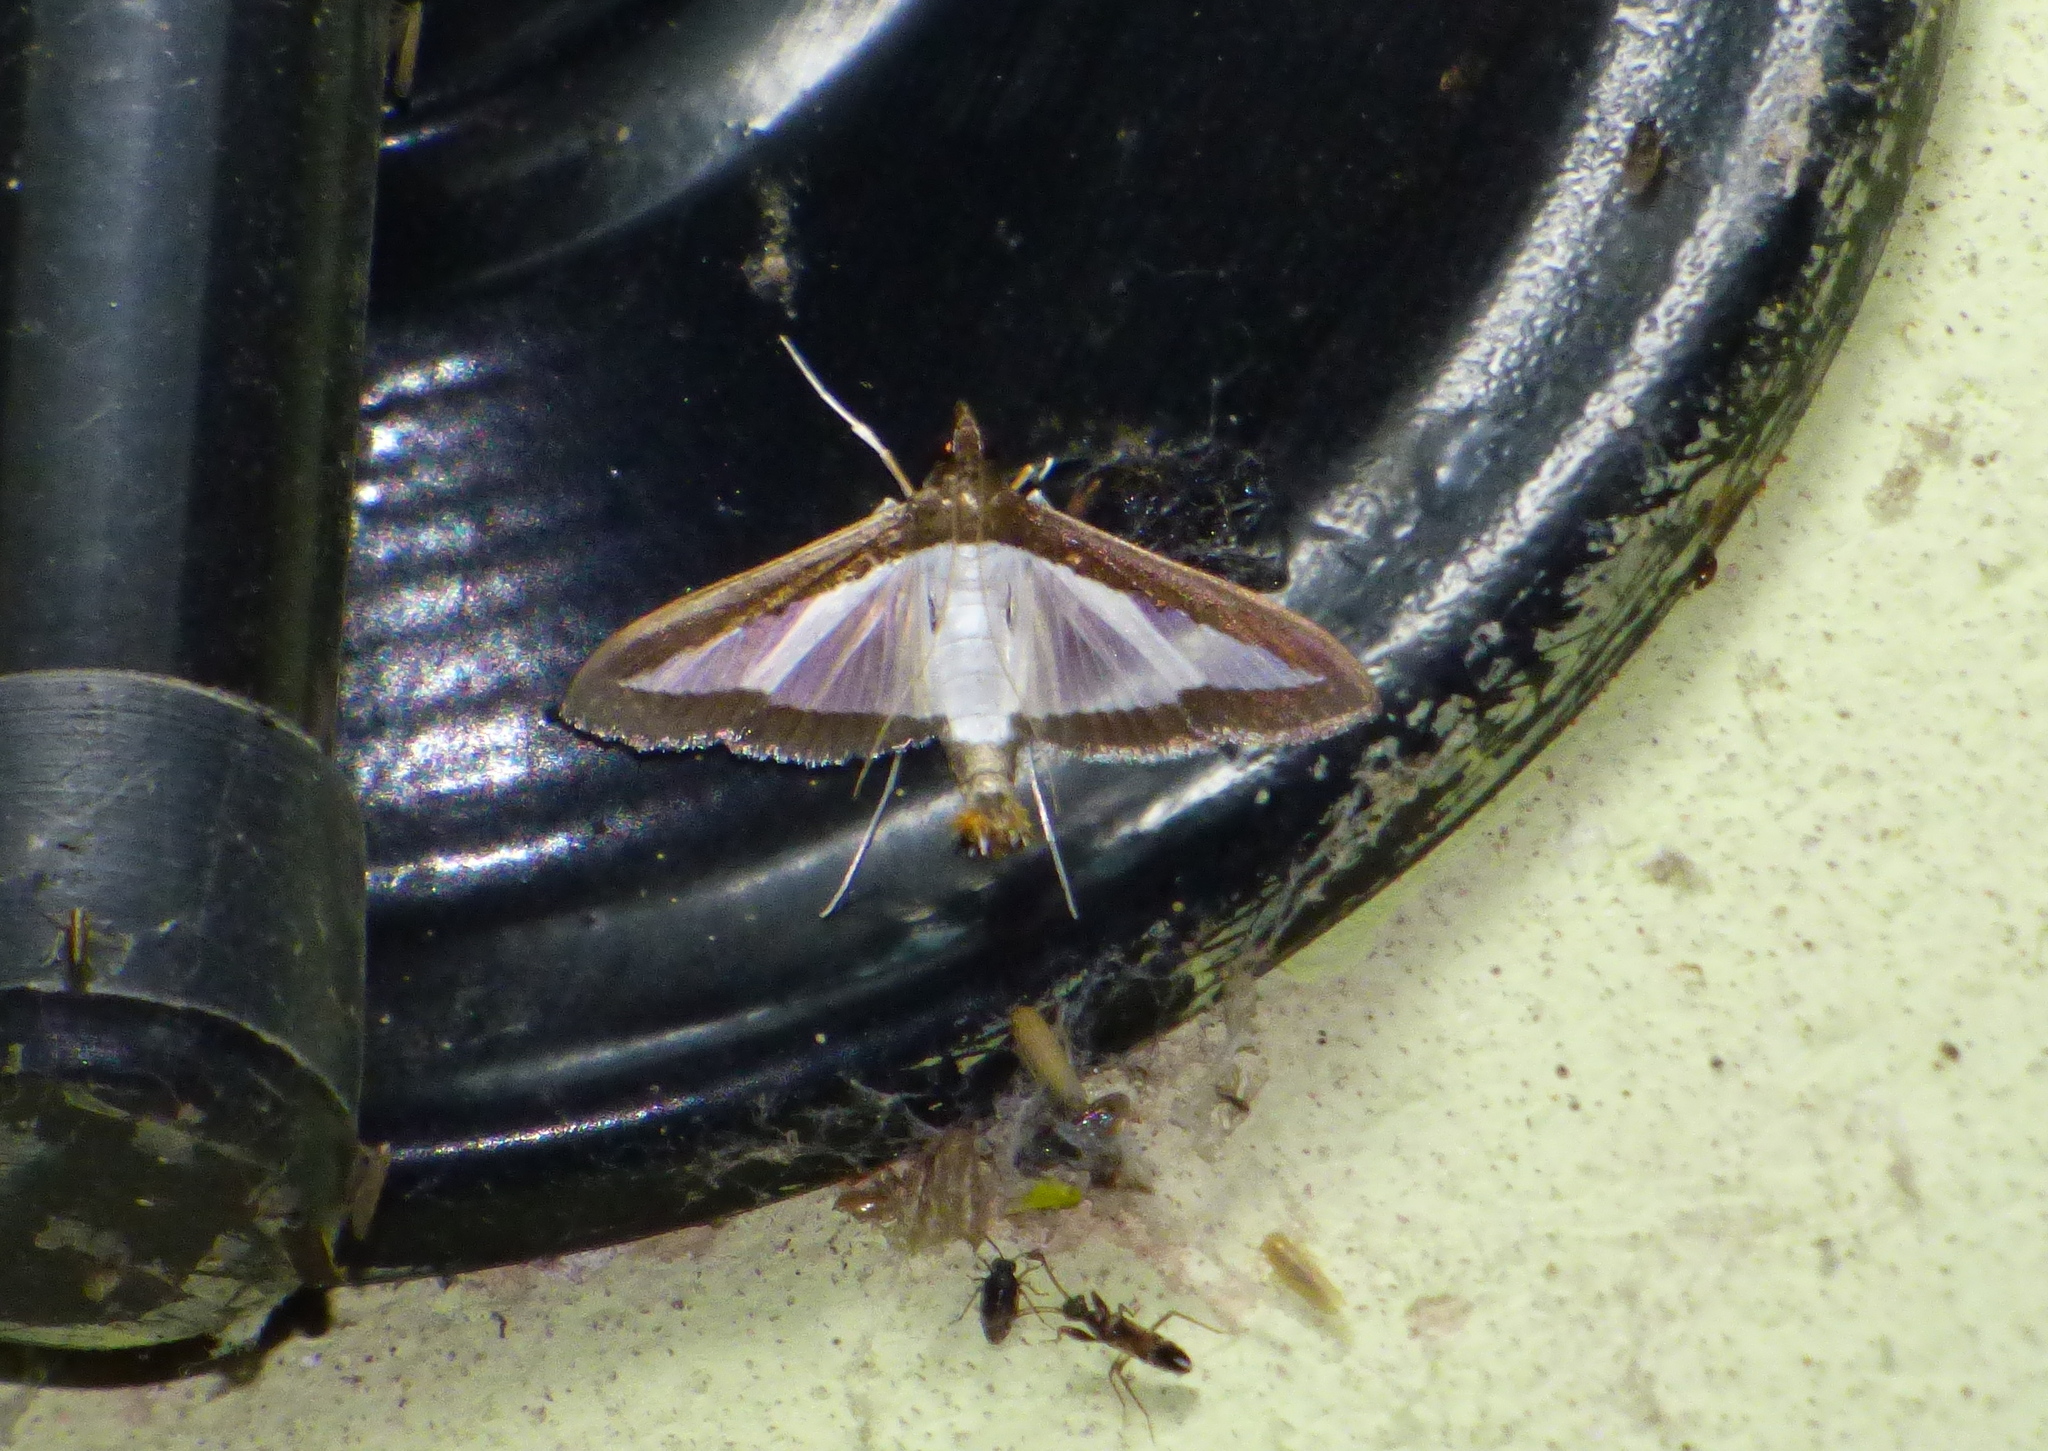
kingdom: Animalia
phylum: Arthropoda
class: Insecta
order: Lepidoptera
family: Crambidae
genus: Diaphania
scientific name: Diaphania hyalinata
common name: Melonworm
